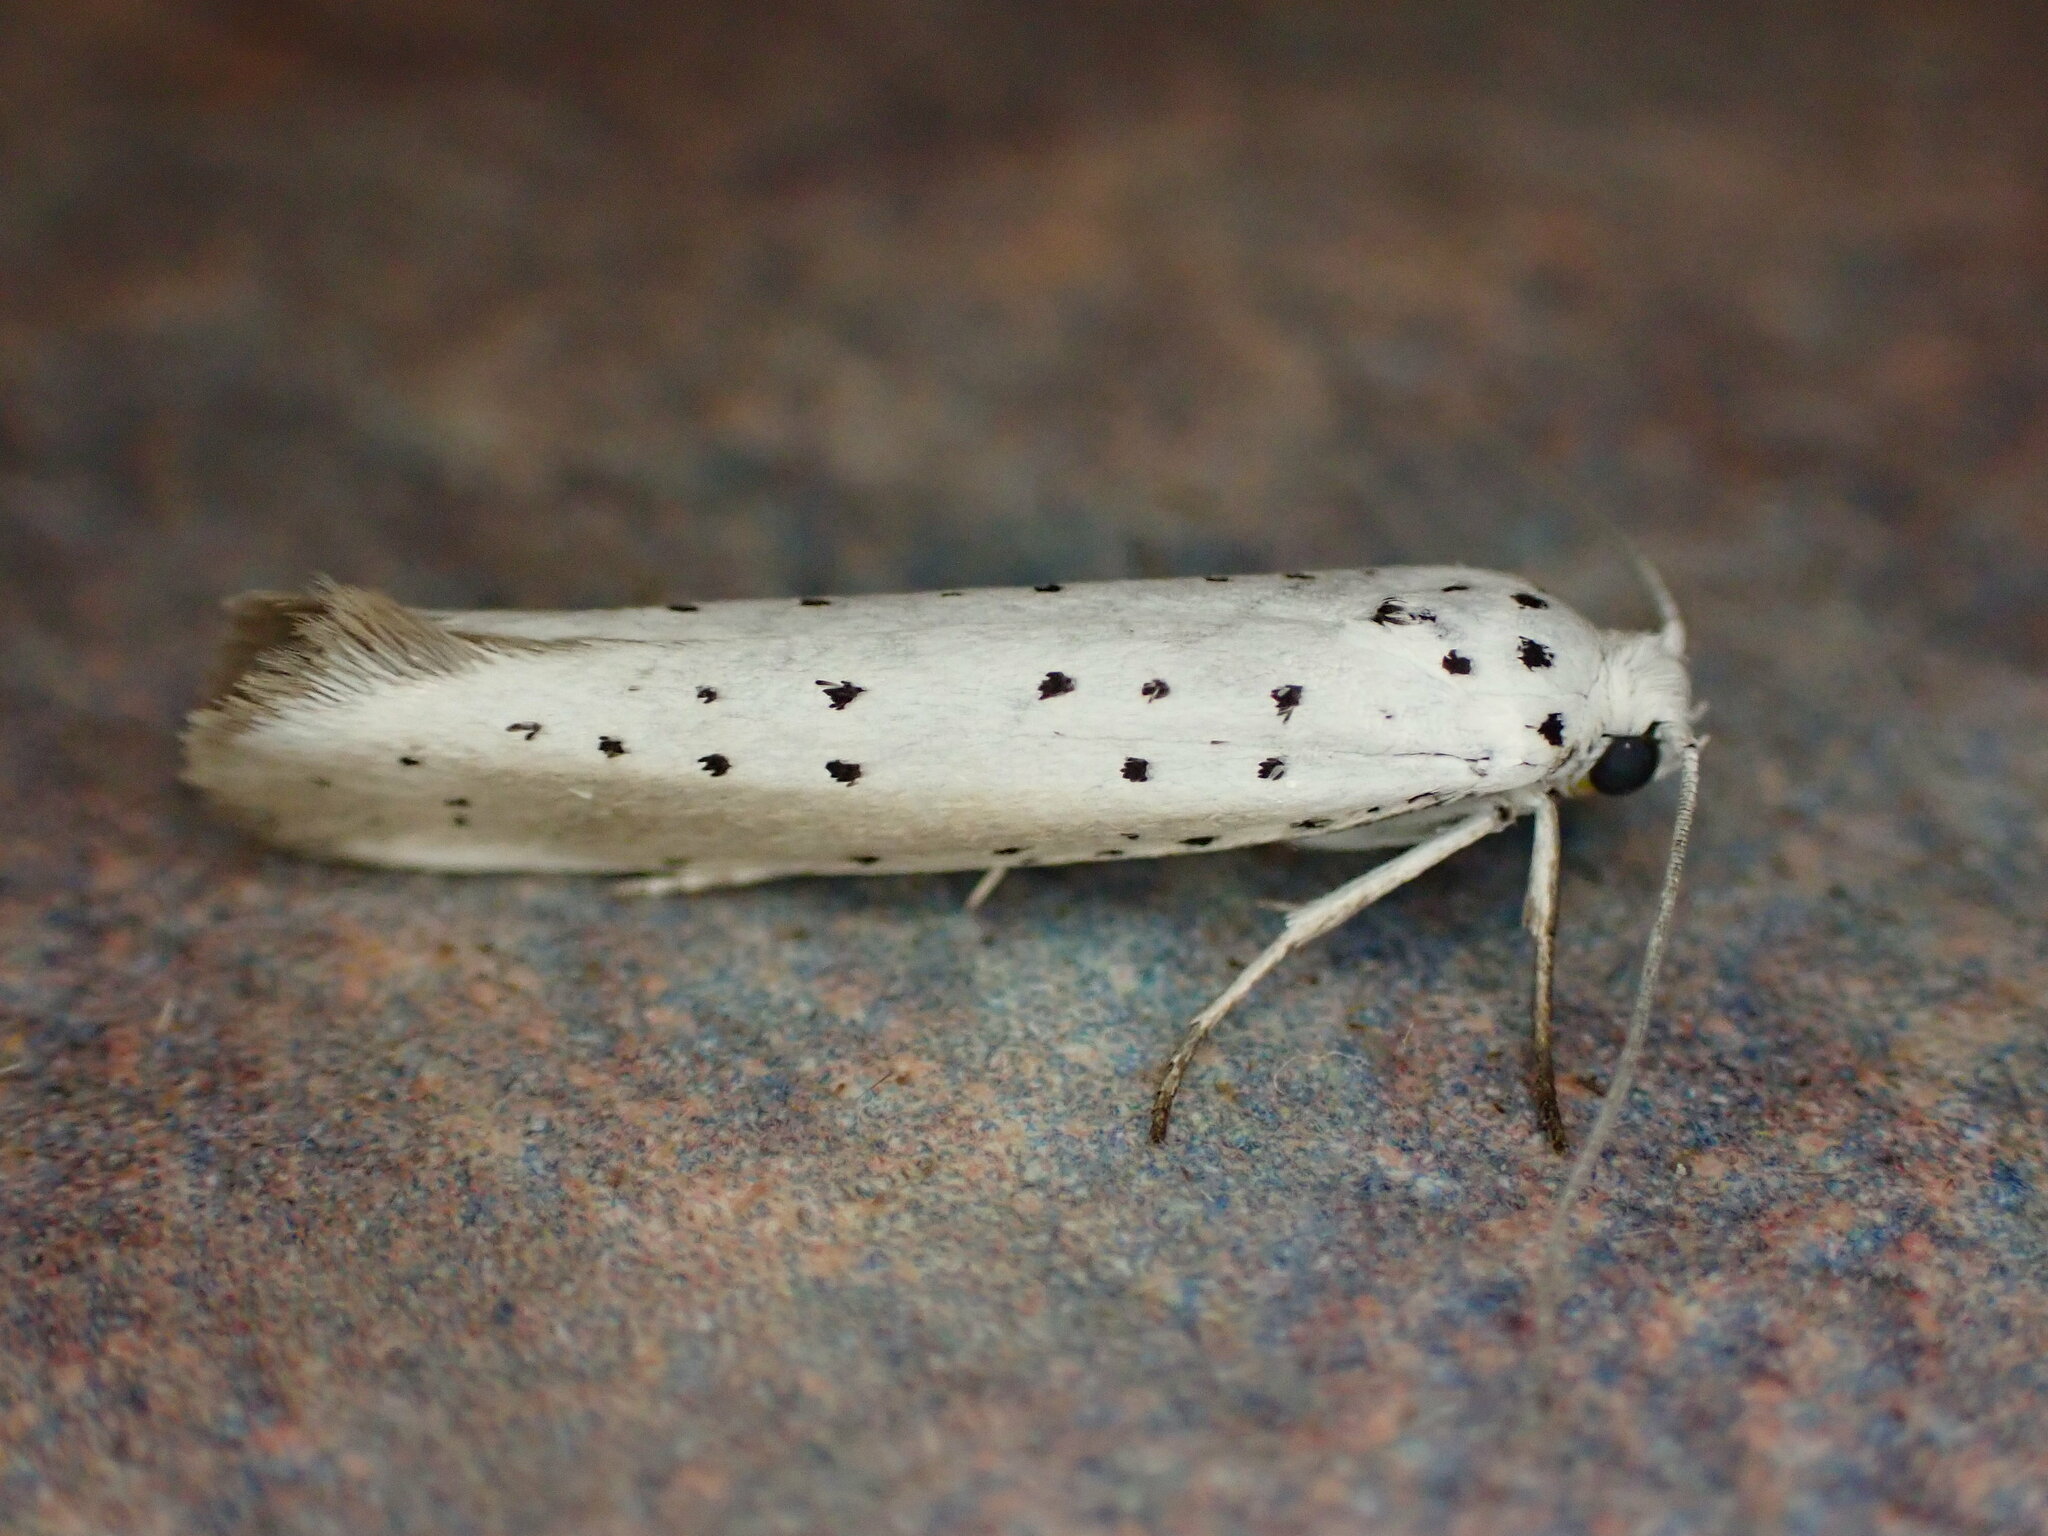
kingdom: Animalia
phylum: Arthropoda
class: Insecta
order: Lepidoptera
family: Yponomeutidae
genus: Yponomeuta
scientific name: Yponomeuta padella
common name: Orchard ermine
